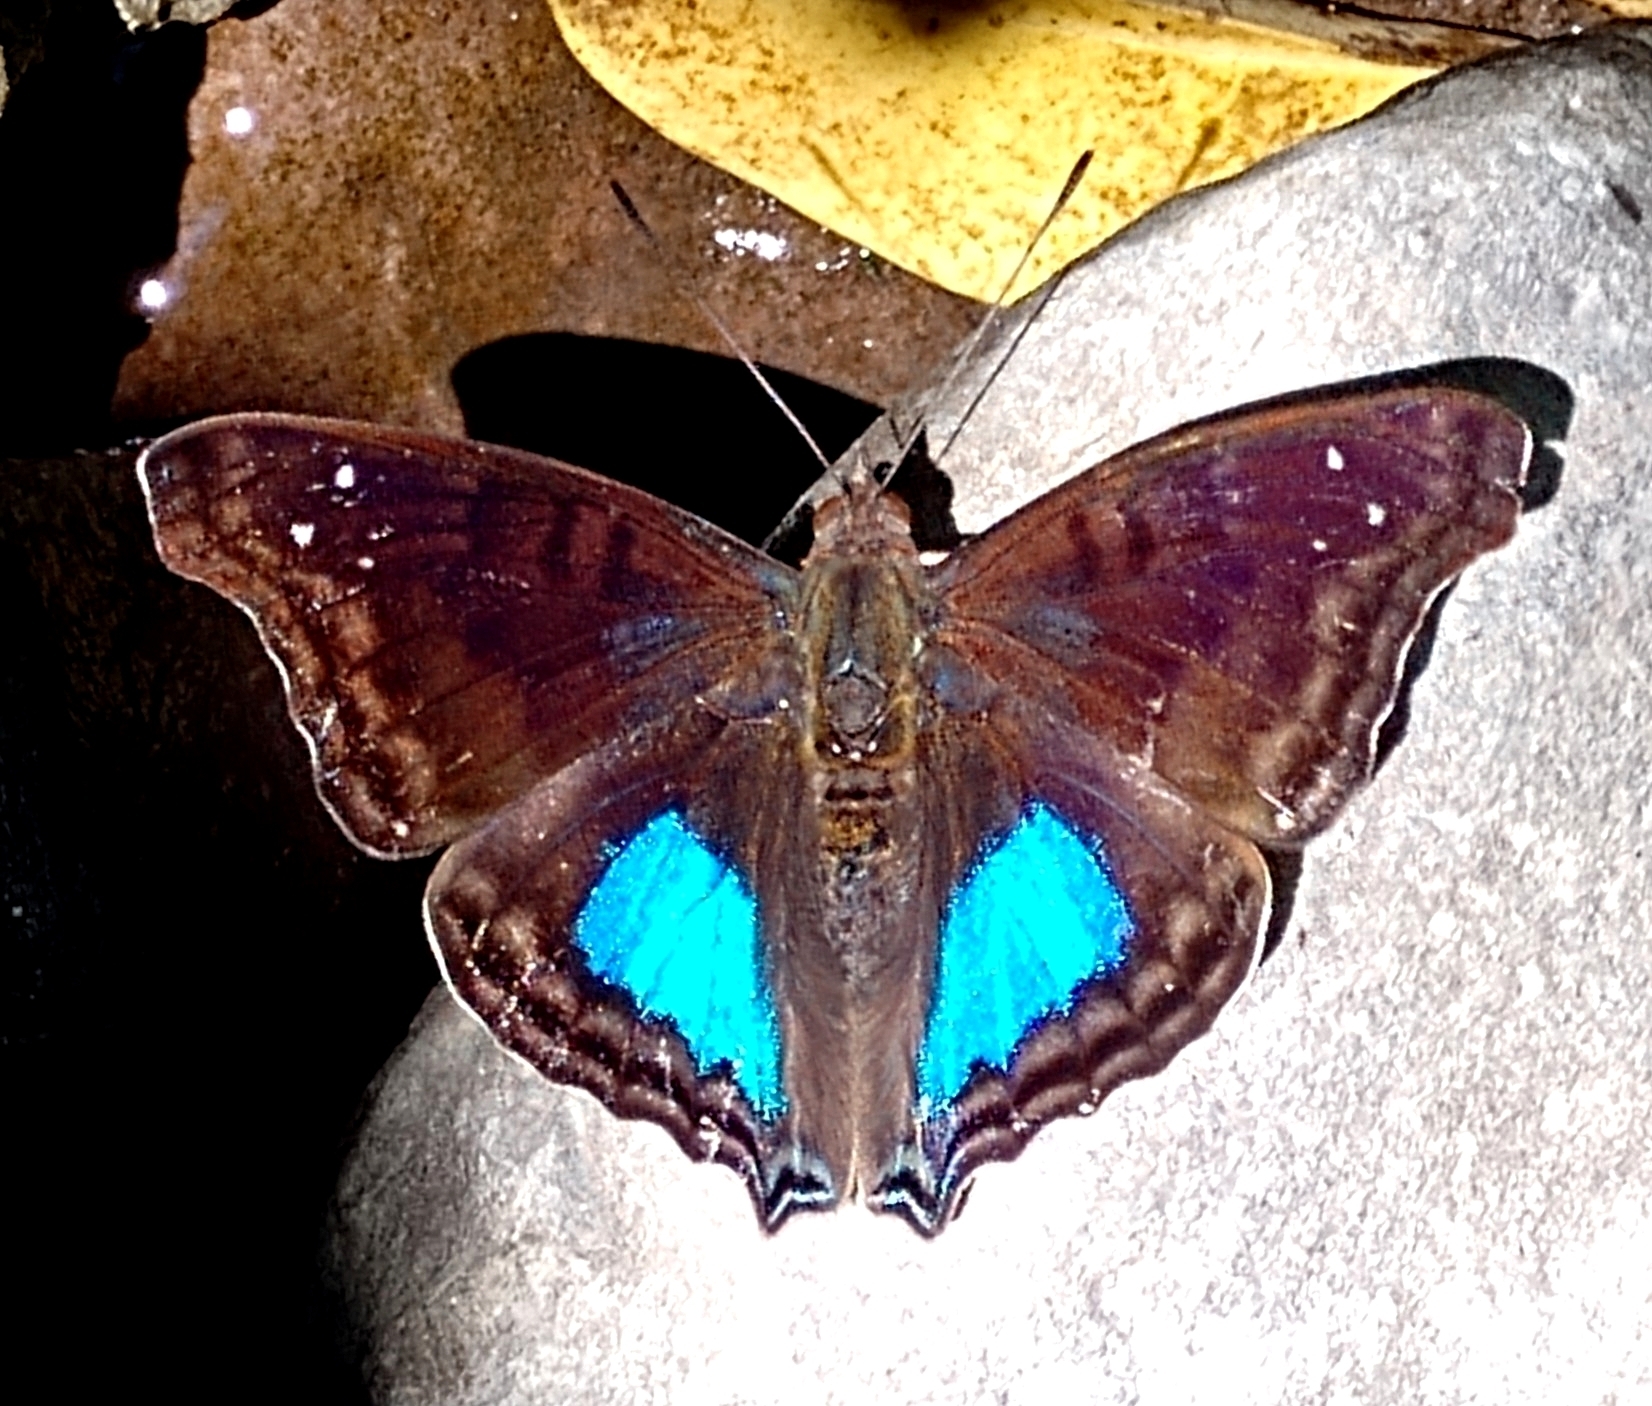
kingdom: Animalia
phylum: Arthropoda
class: Insecta
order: Lepidoptera
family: Nymphalidae
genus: Doxocopa
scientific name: Doxocopa cyane
